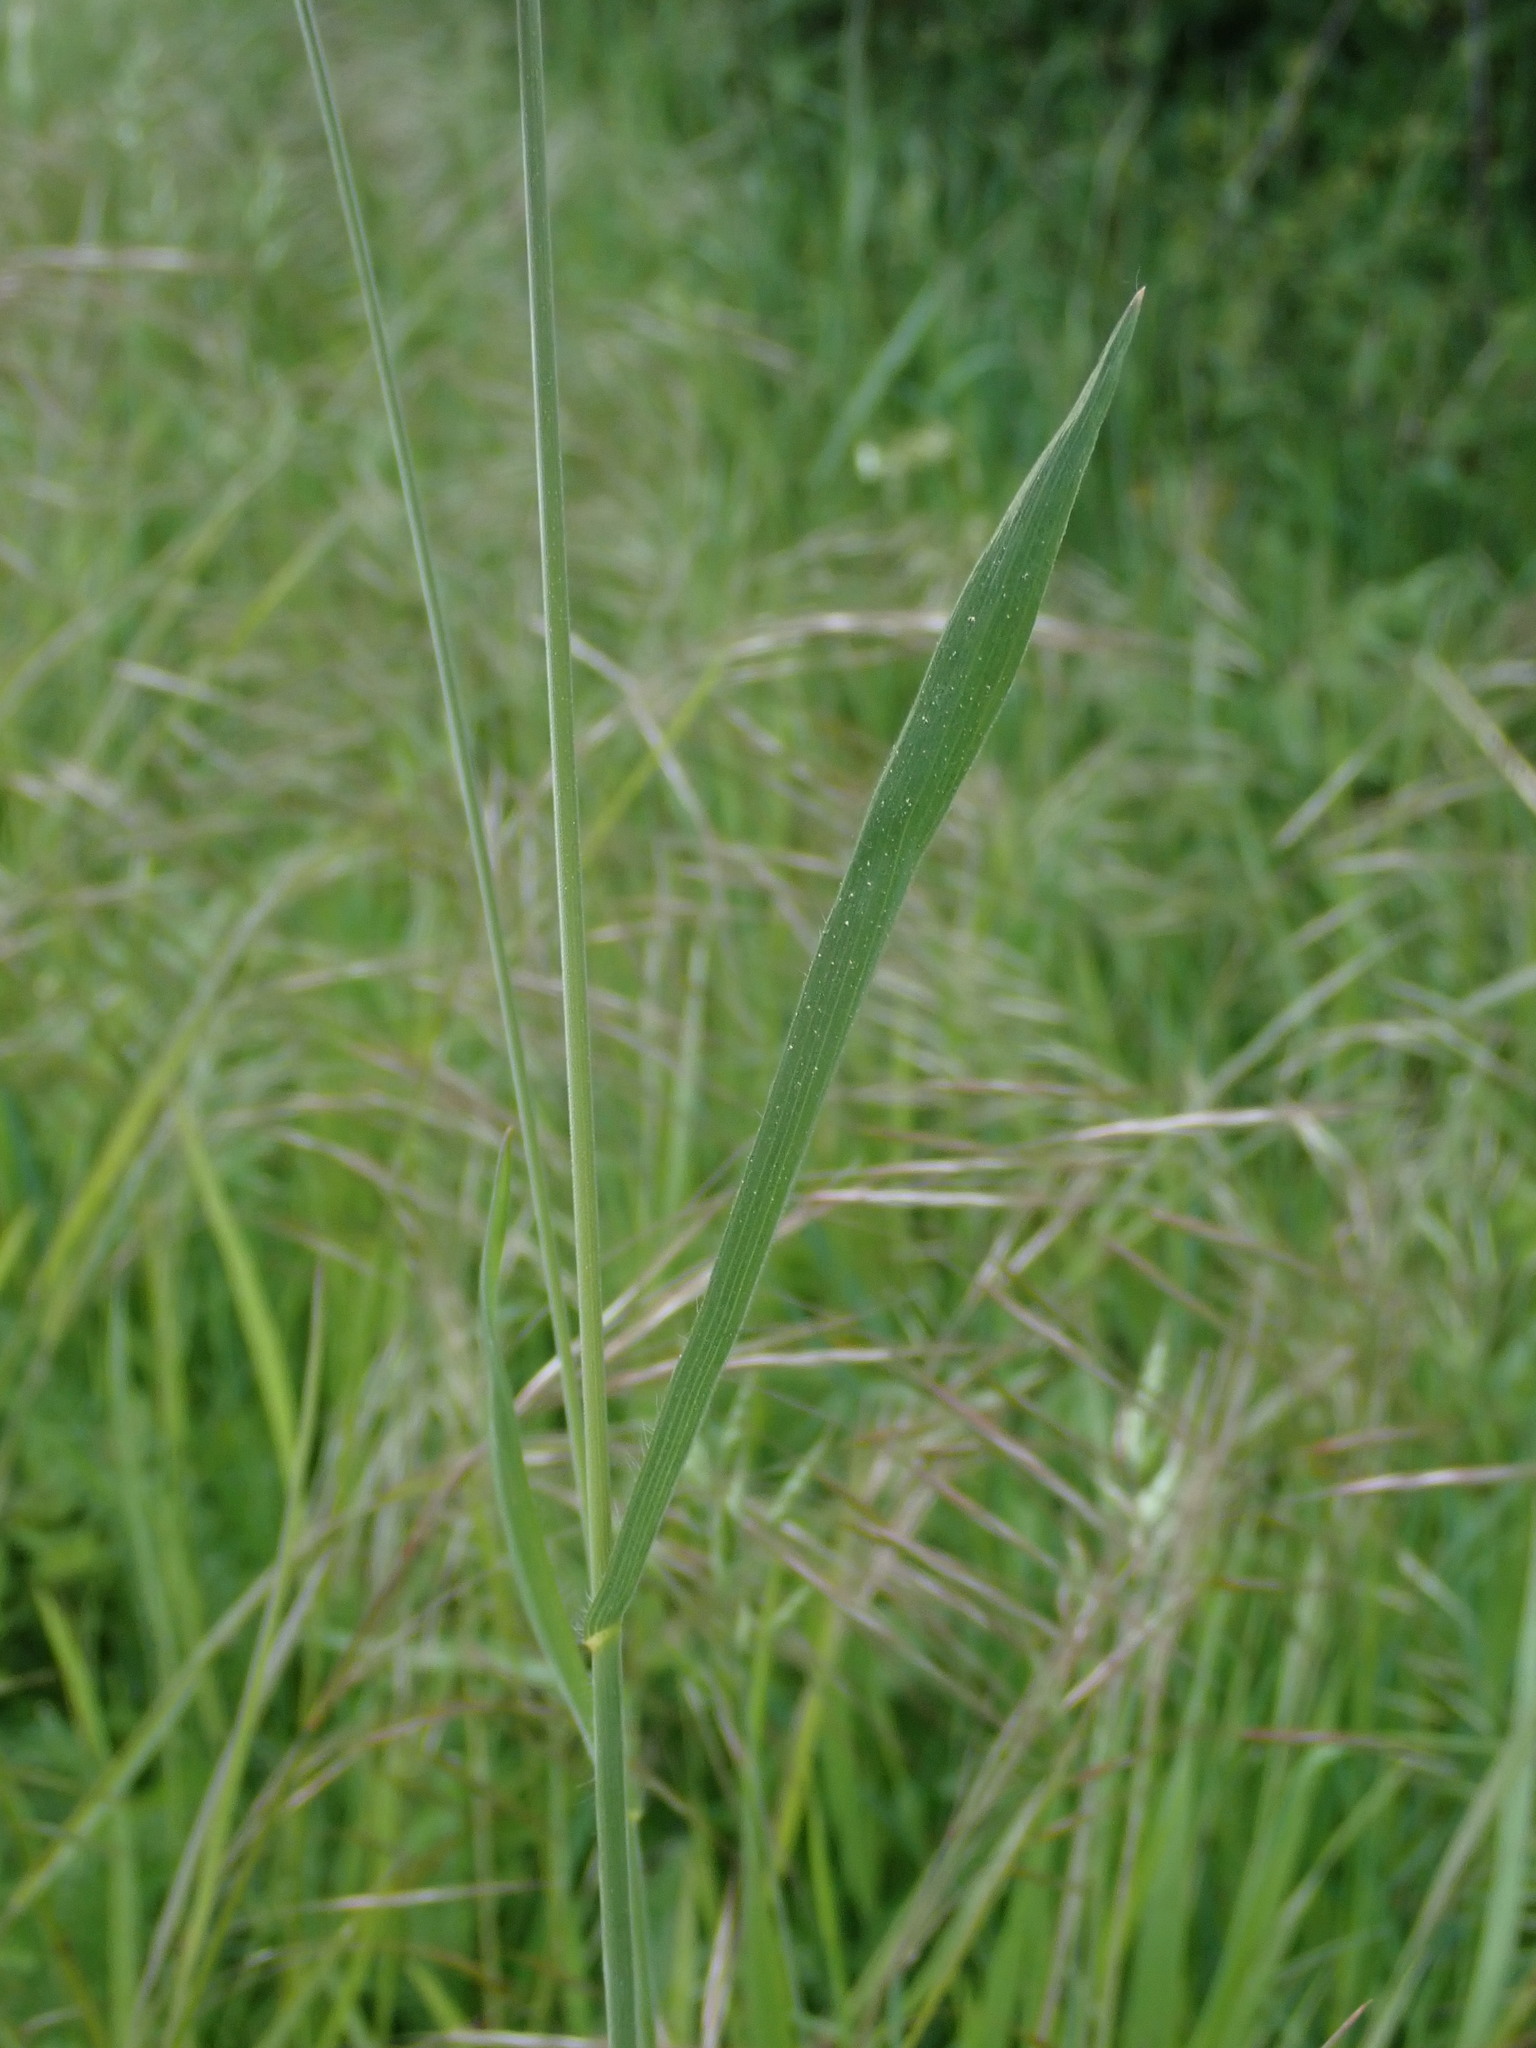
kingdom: Plantae
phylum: Tracheophyta
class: Liliopsida
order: Poales
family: Poaceae
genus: Bromus
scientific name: Bromus hordeaceus
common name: Soft brome
